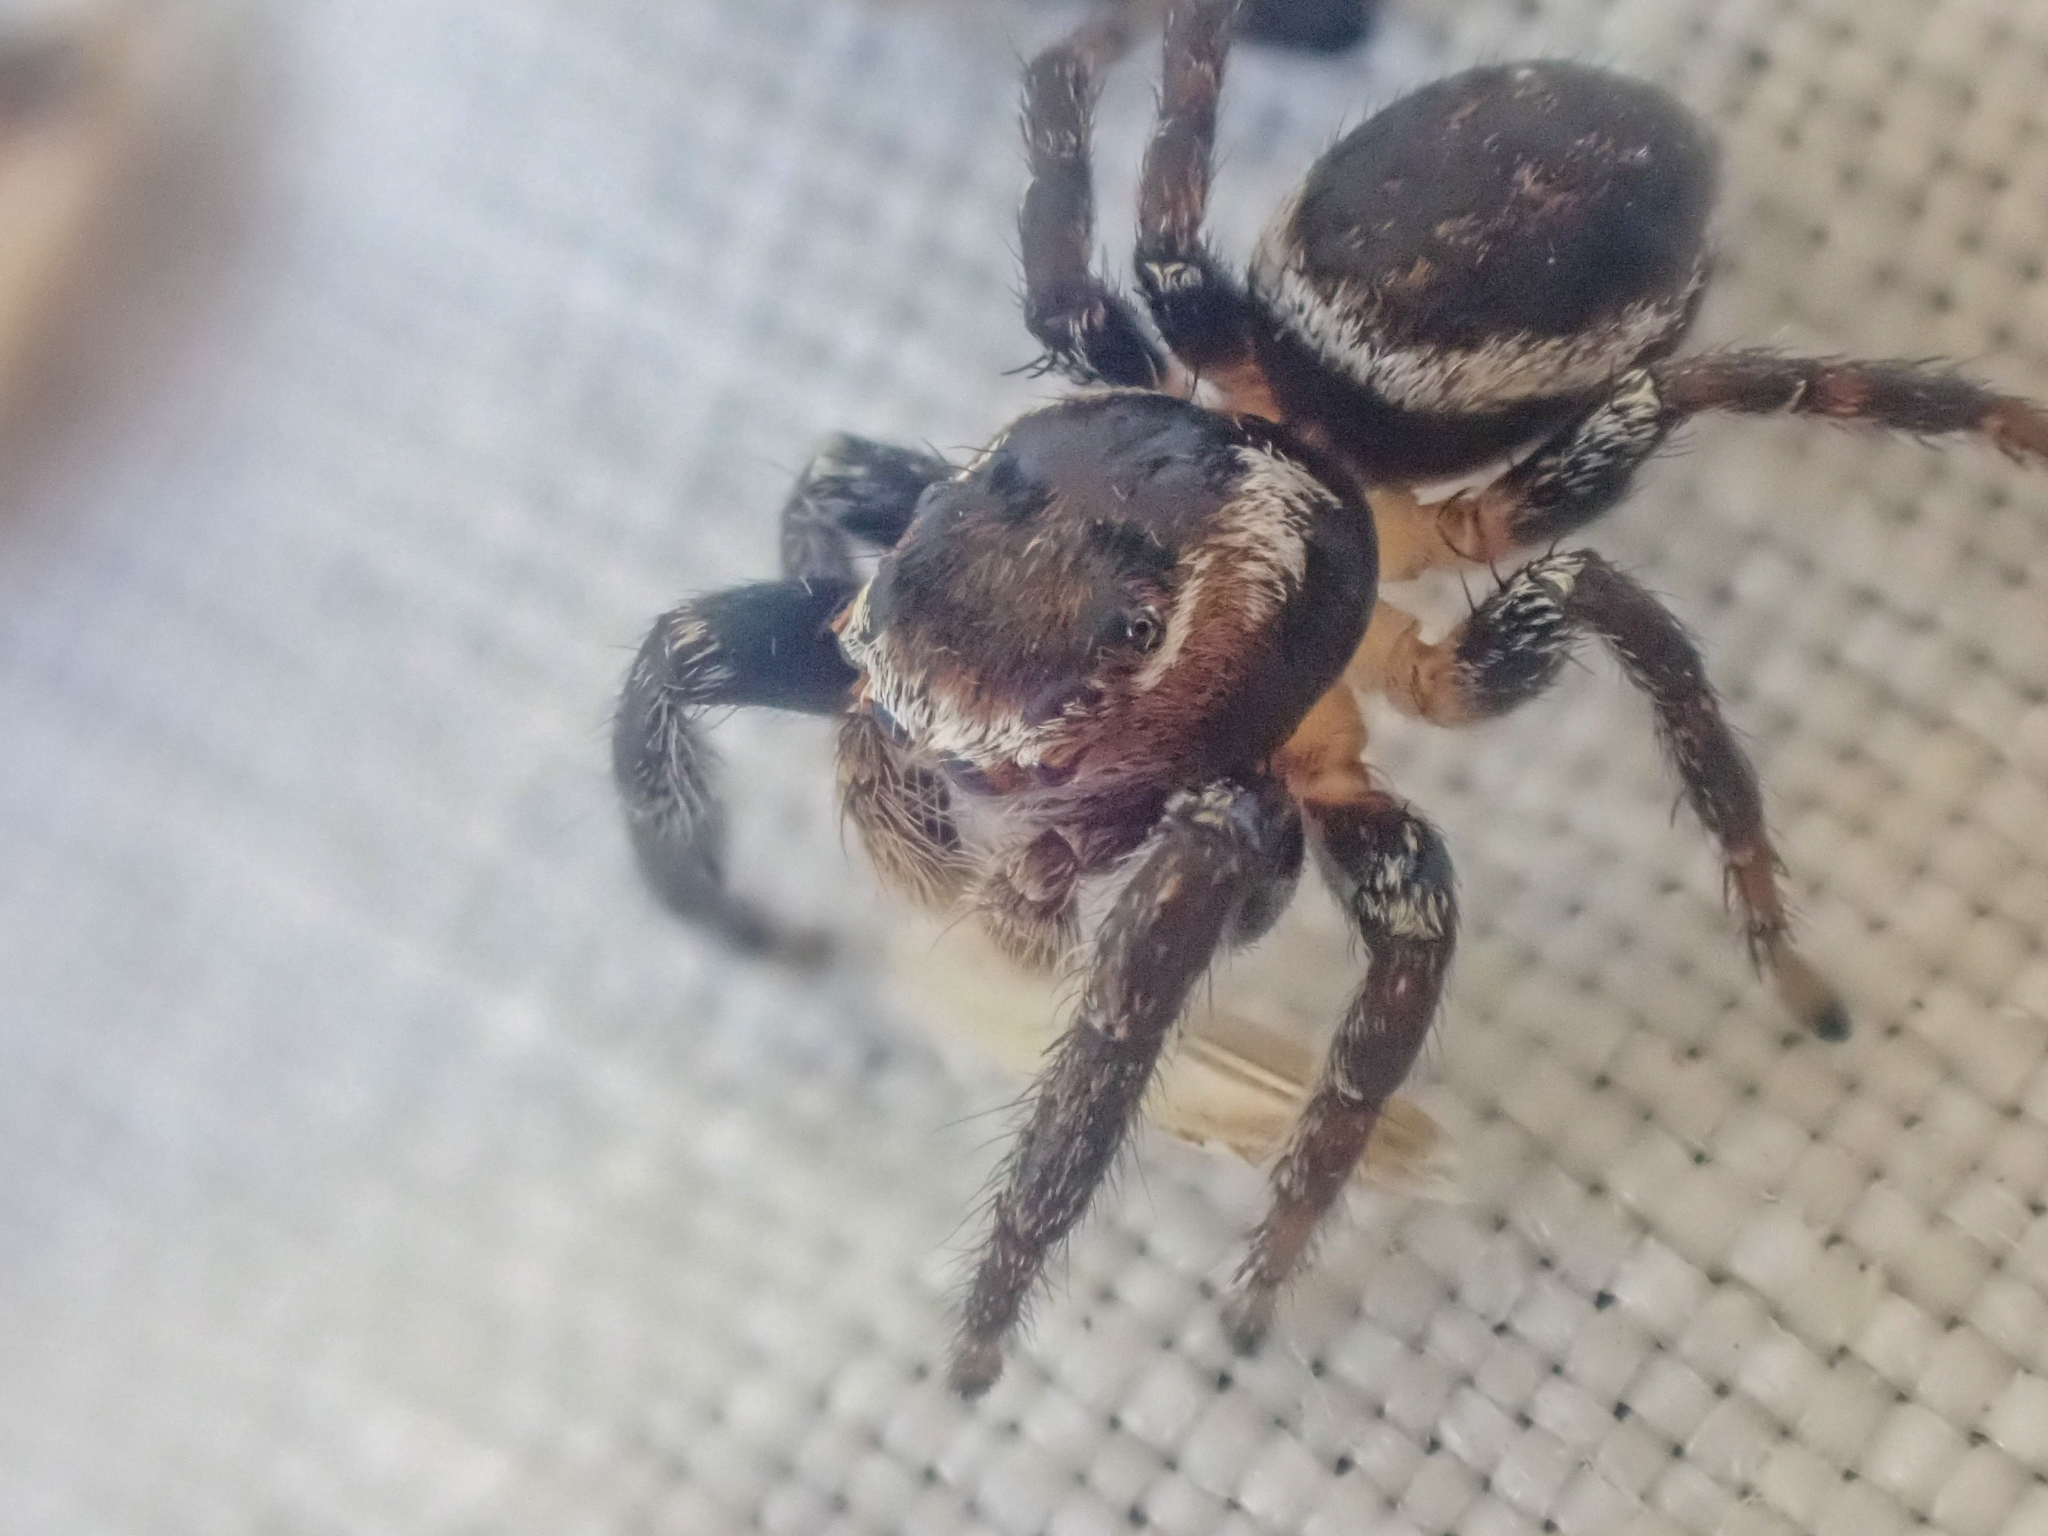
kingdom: Animalia
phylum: Arthropoda
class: Arachnida
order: Araneae
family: Salticidae
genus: Evarcha
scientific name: Evarcha proszynskii
